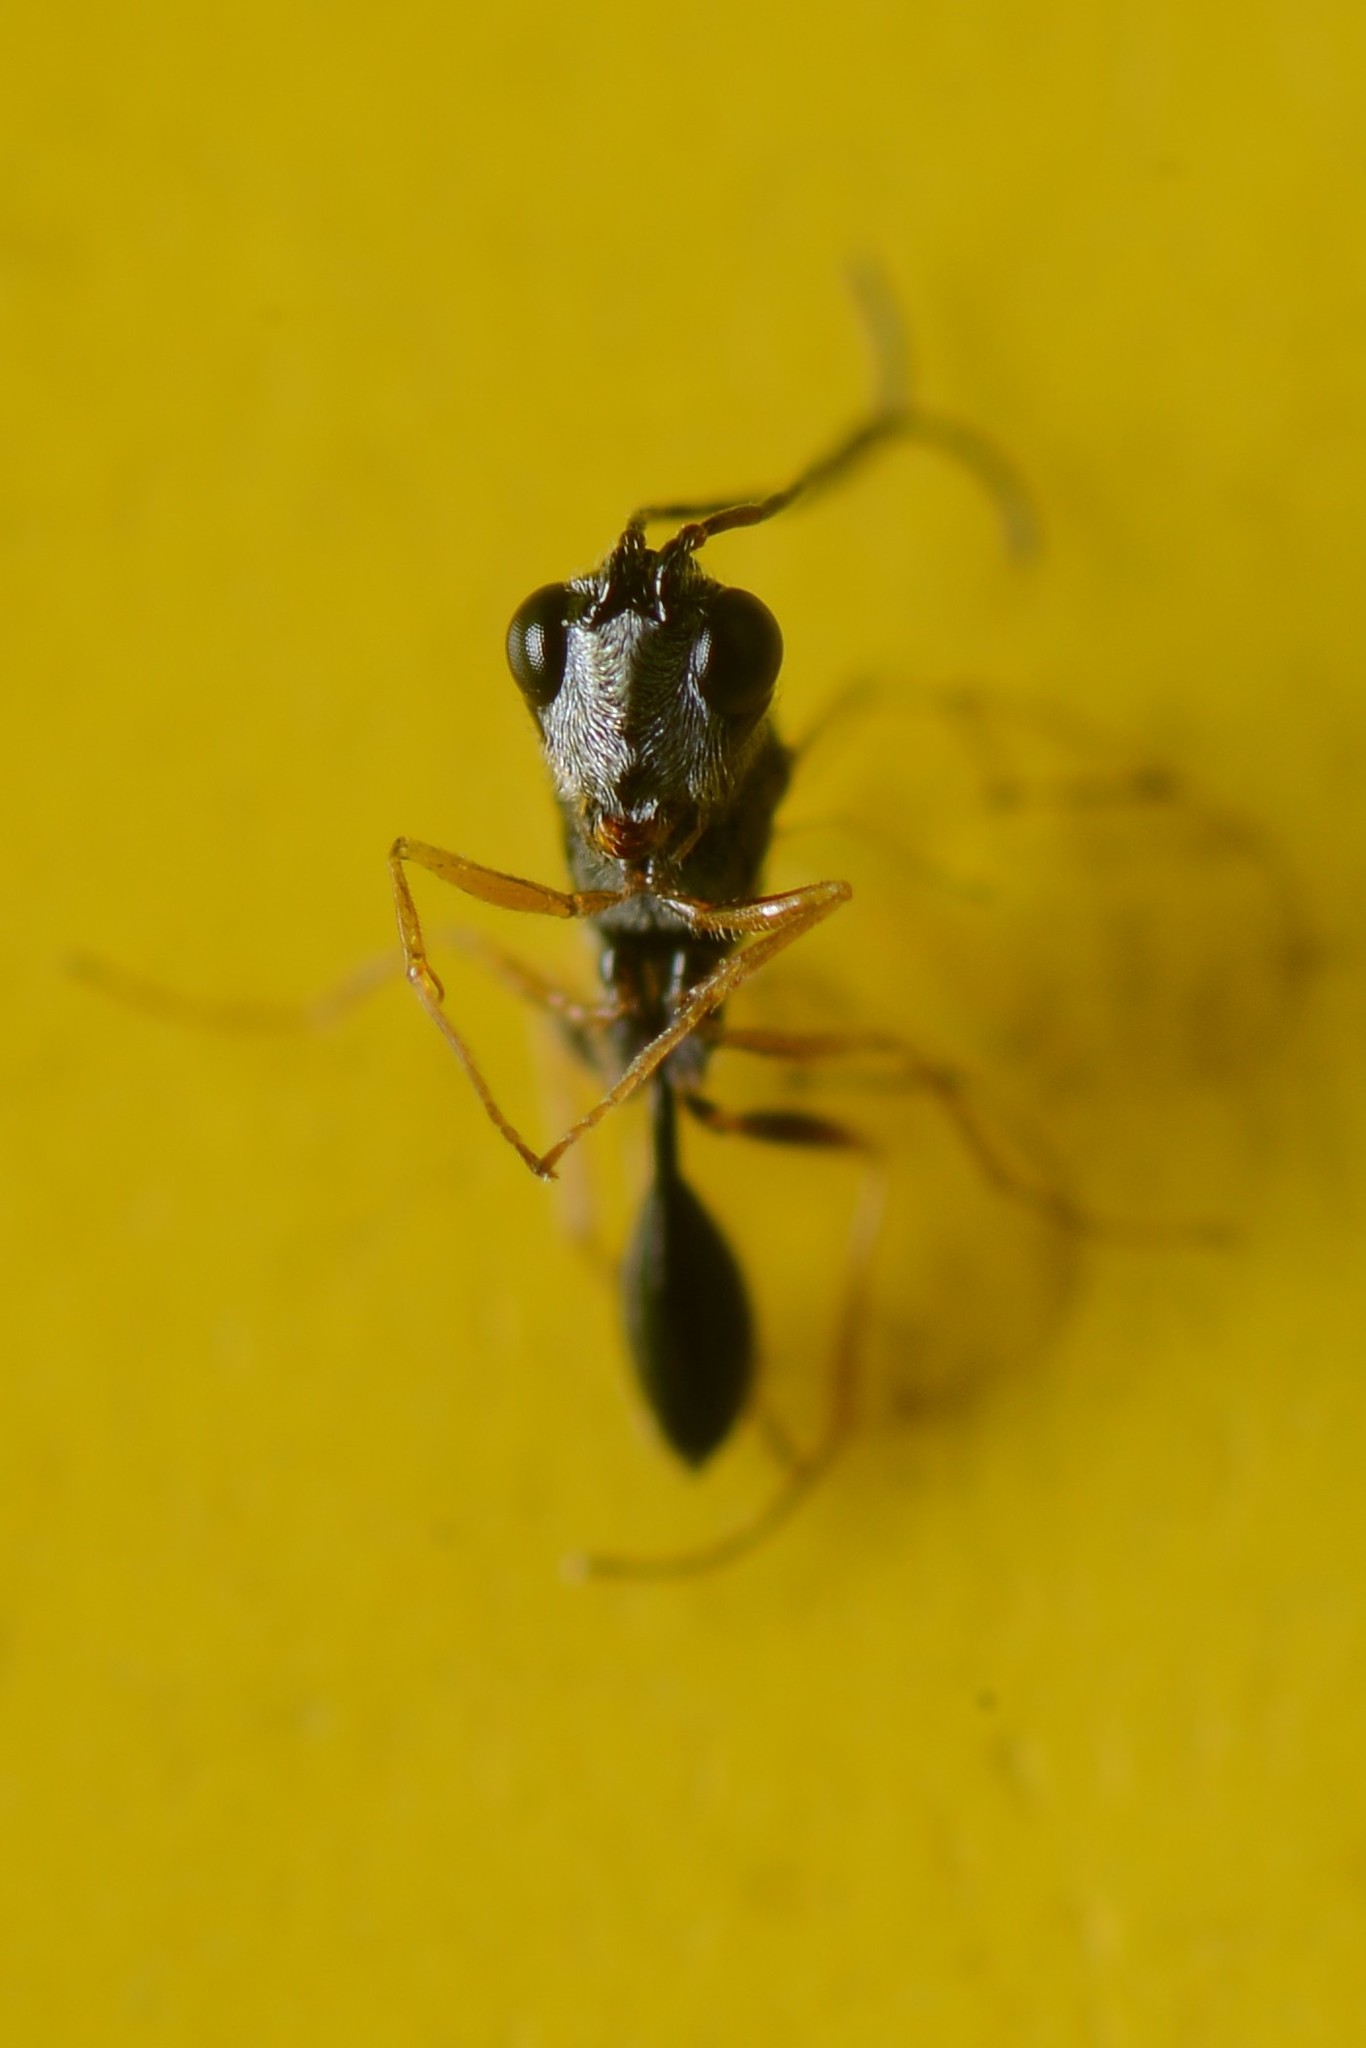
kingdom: Animalia
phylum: Arthropoda
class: Insecta
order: Hymenoptera
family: Figitidae
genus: Anacharis
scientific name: Anacharis zealandica
